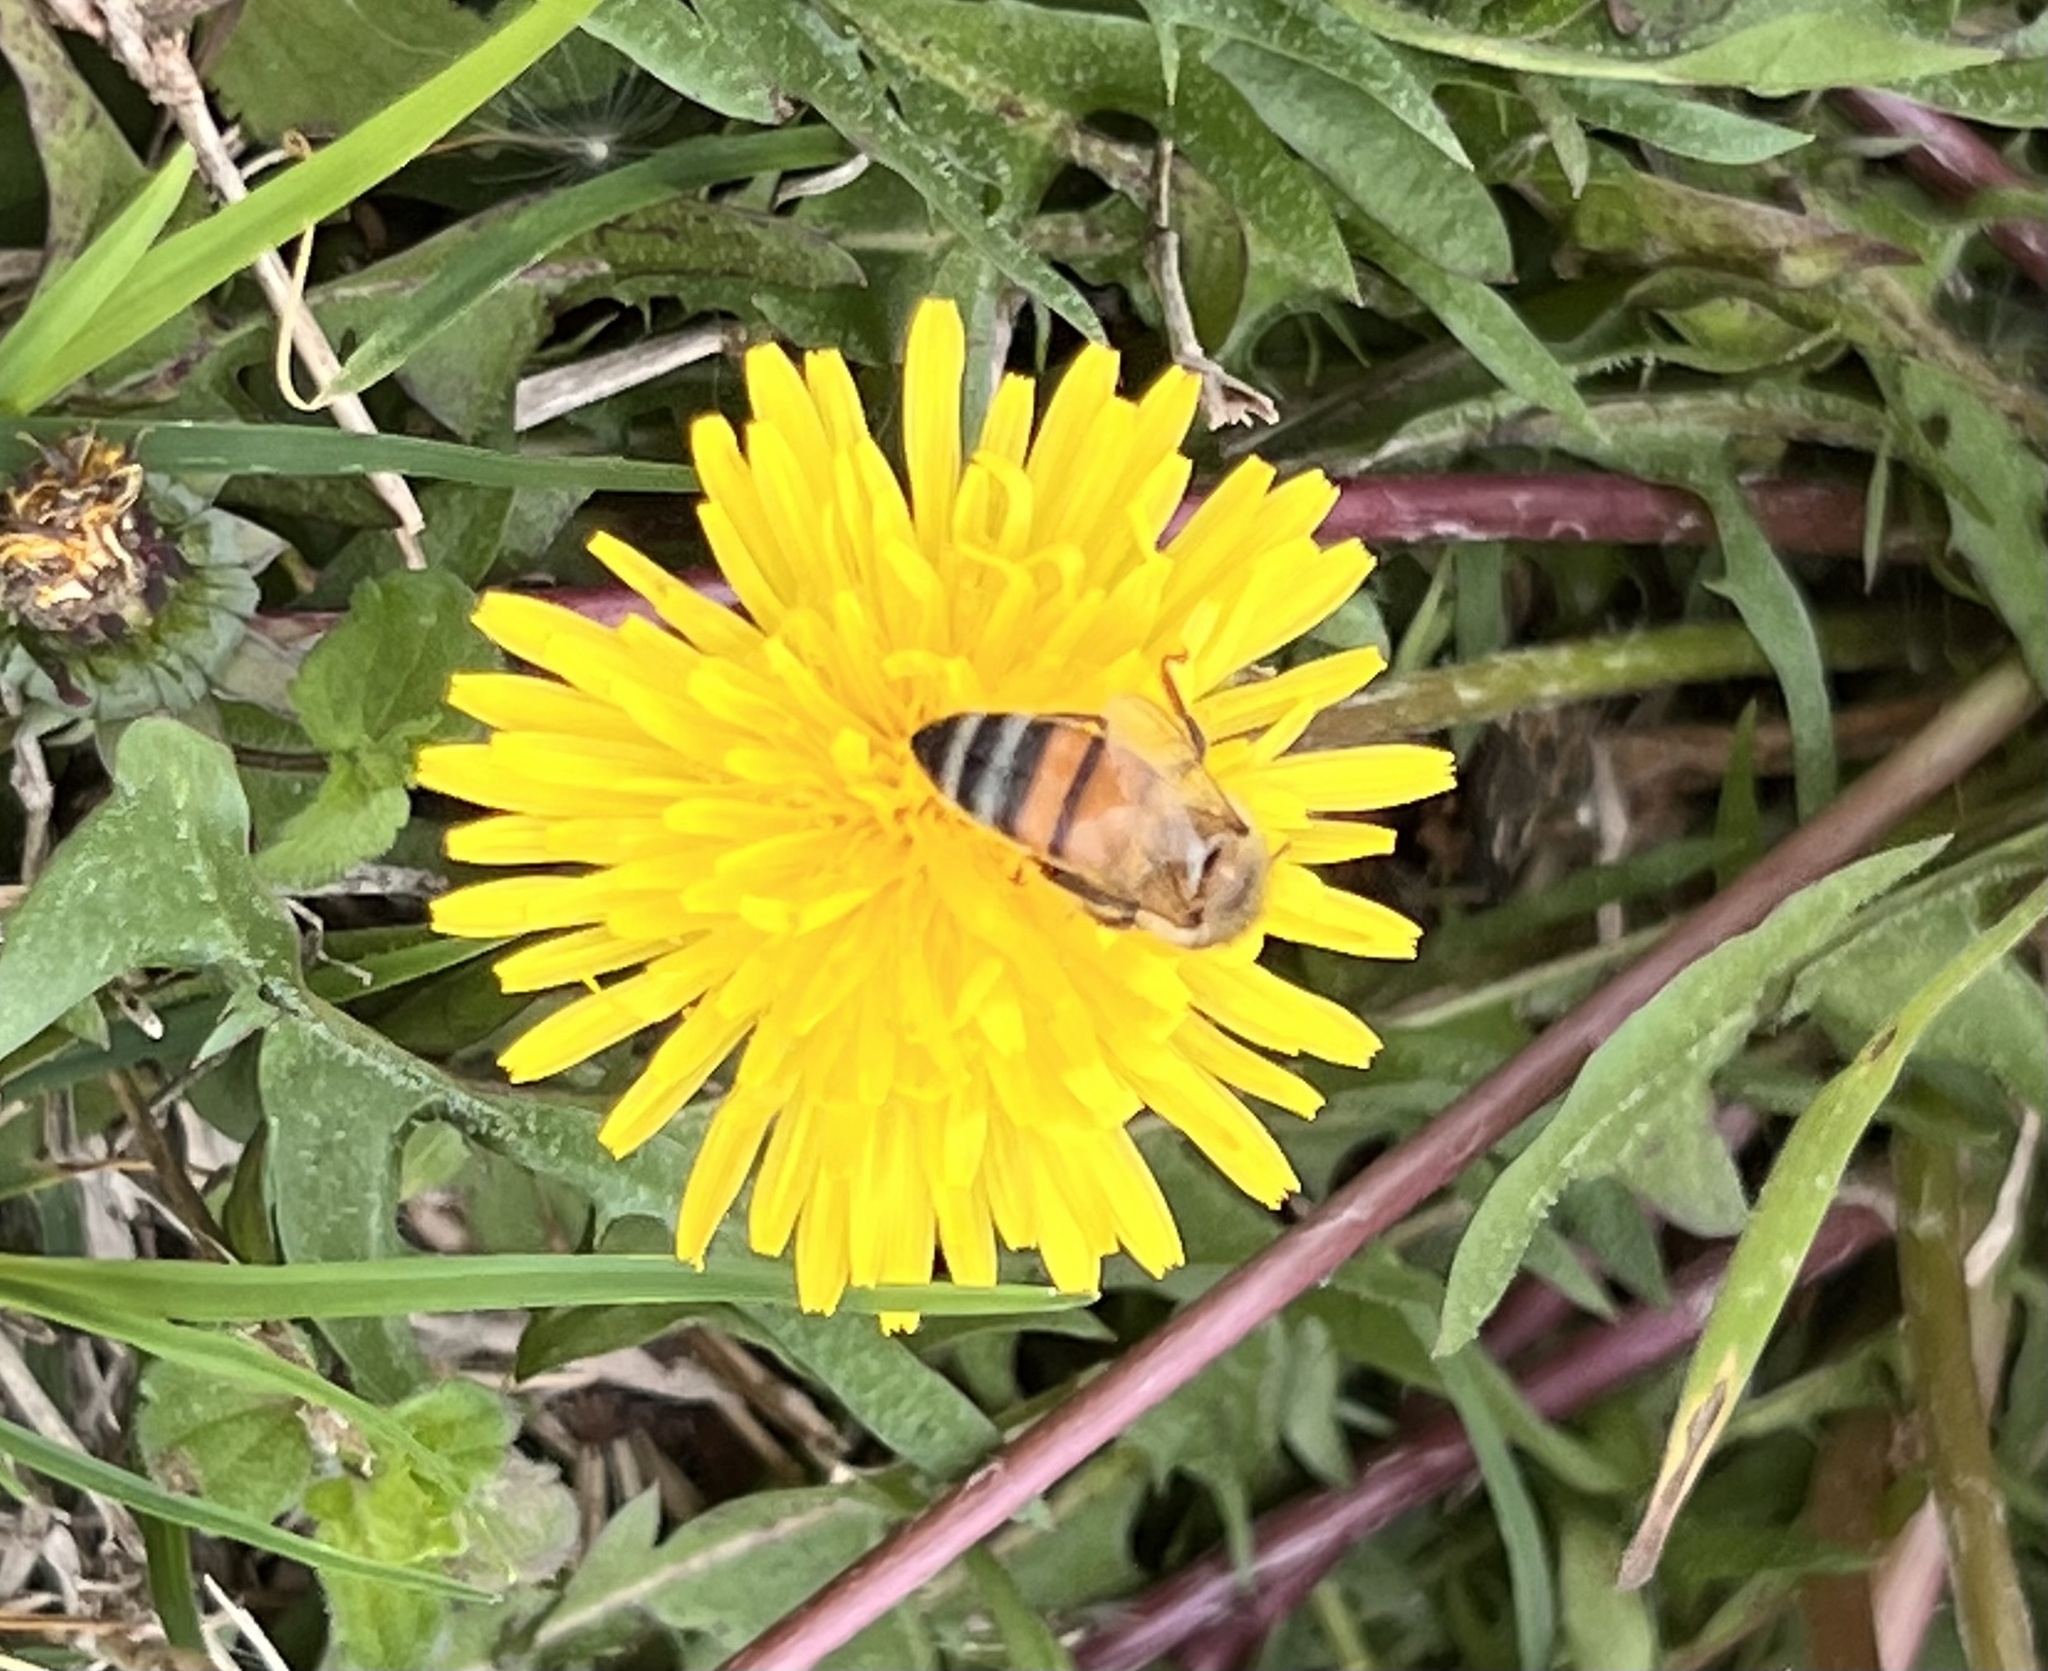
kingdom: Animalia
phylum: Arthropoda
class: Insecta
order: Hymenoptera
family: Apidae
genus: Apis
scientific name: Apis mellifera
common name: Honey bee
